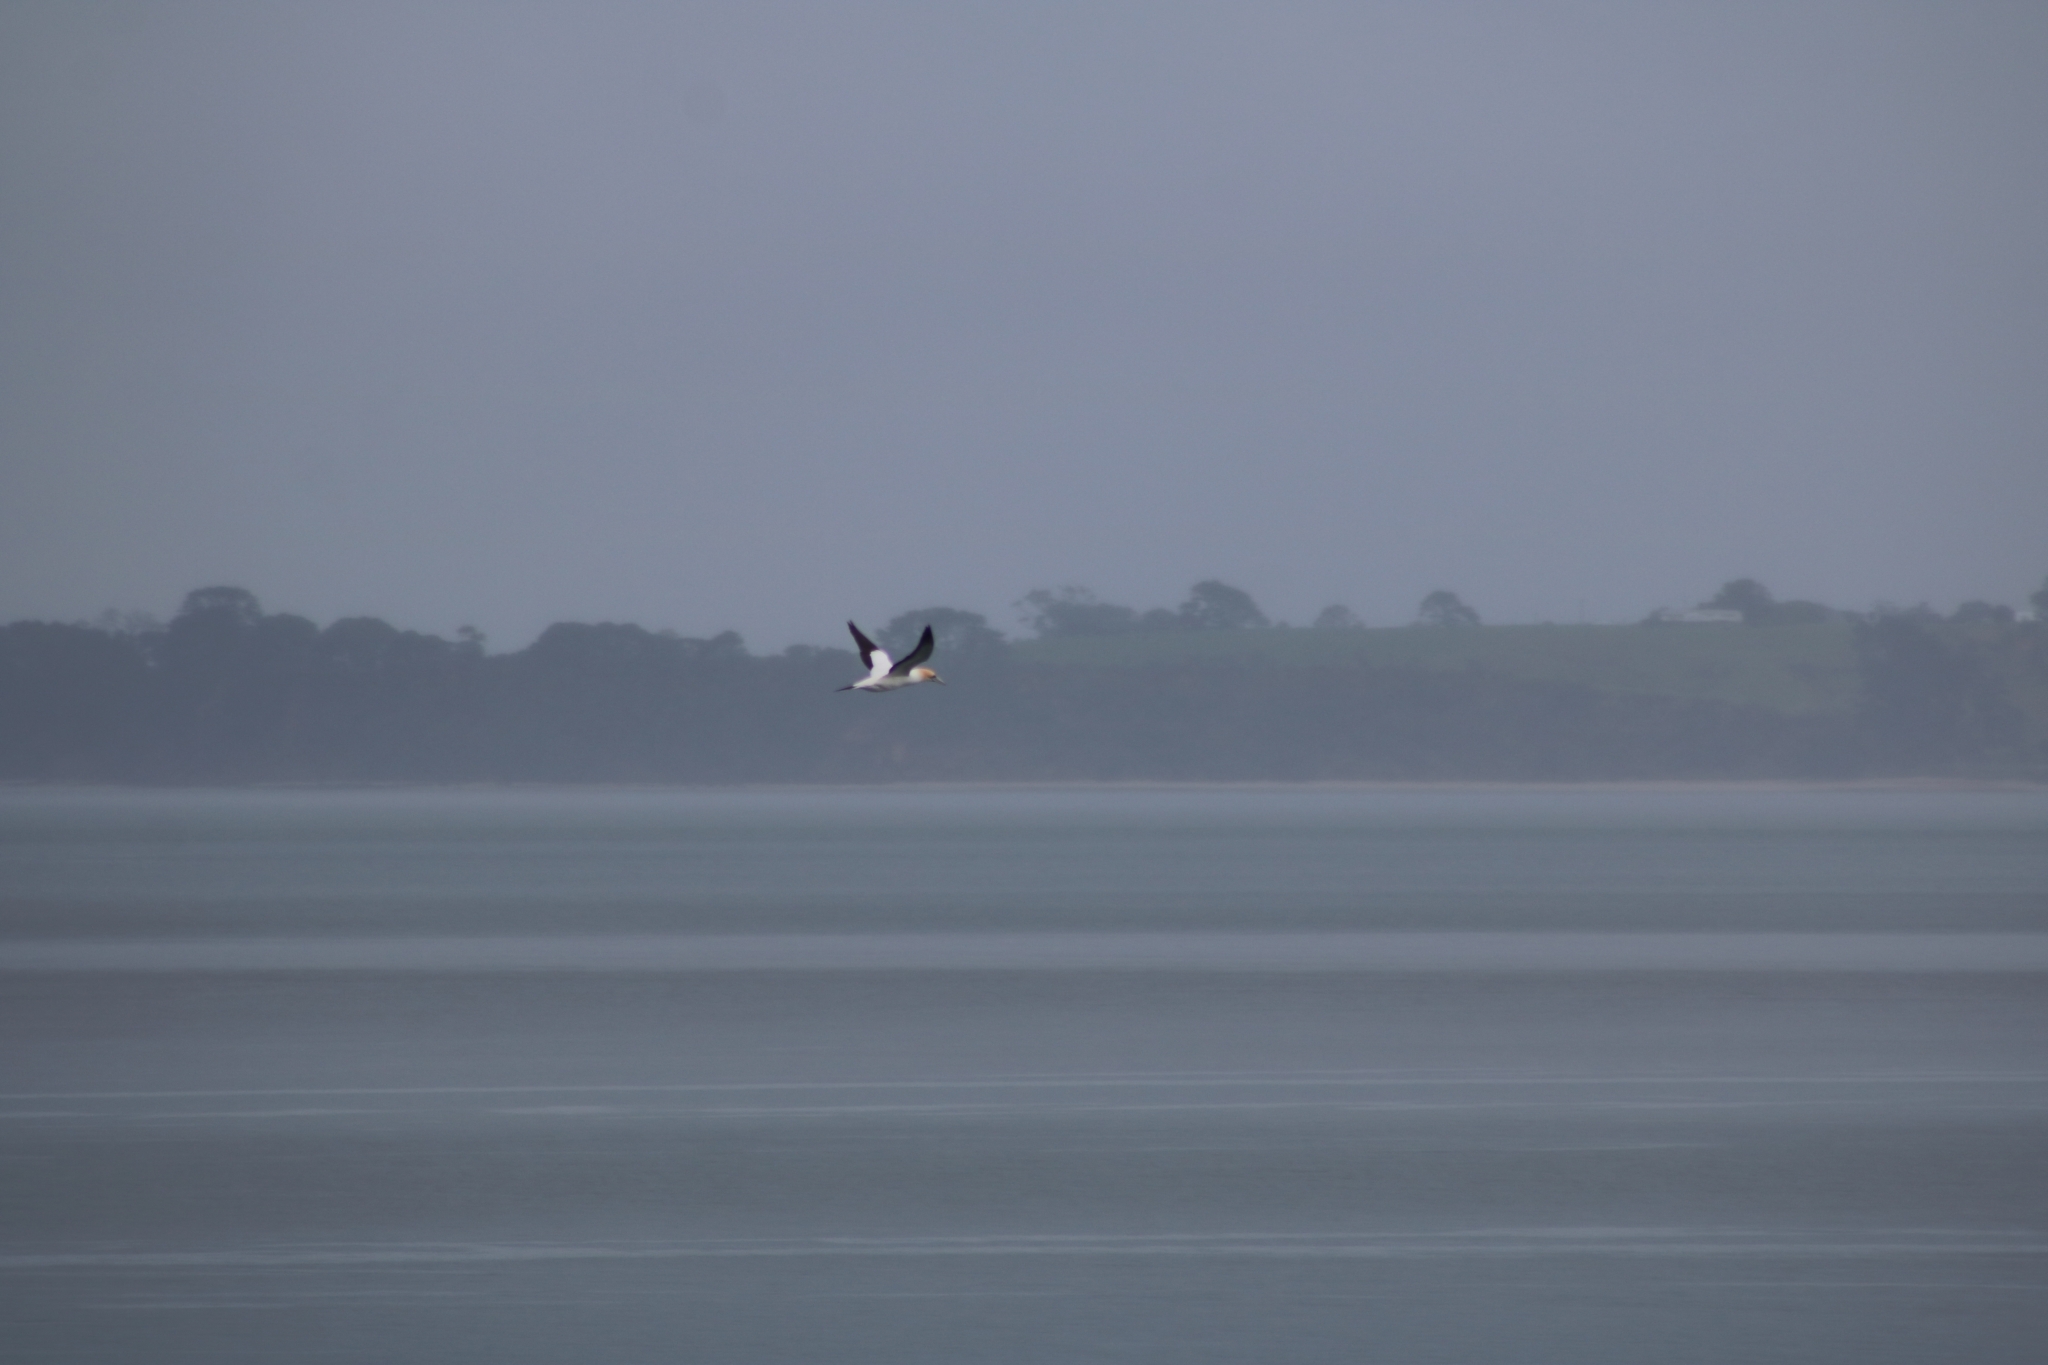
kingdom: Animalia
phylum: Chordata
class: Aves
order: Suliformes
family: Sulidae
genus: Morus
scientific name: Morus serrator
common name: Australasian gannet
